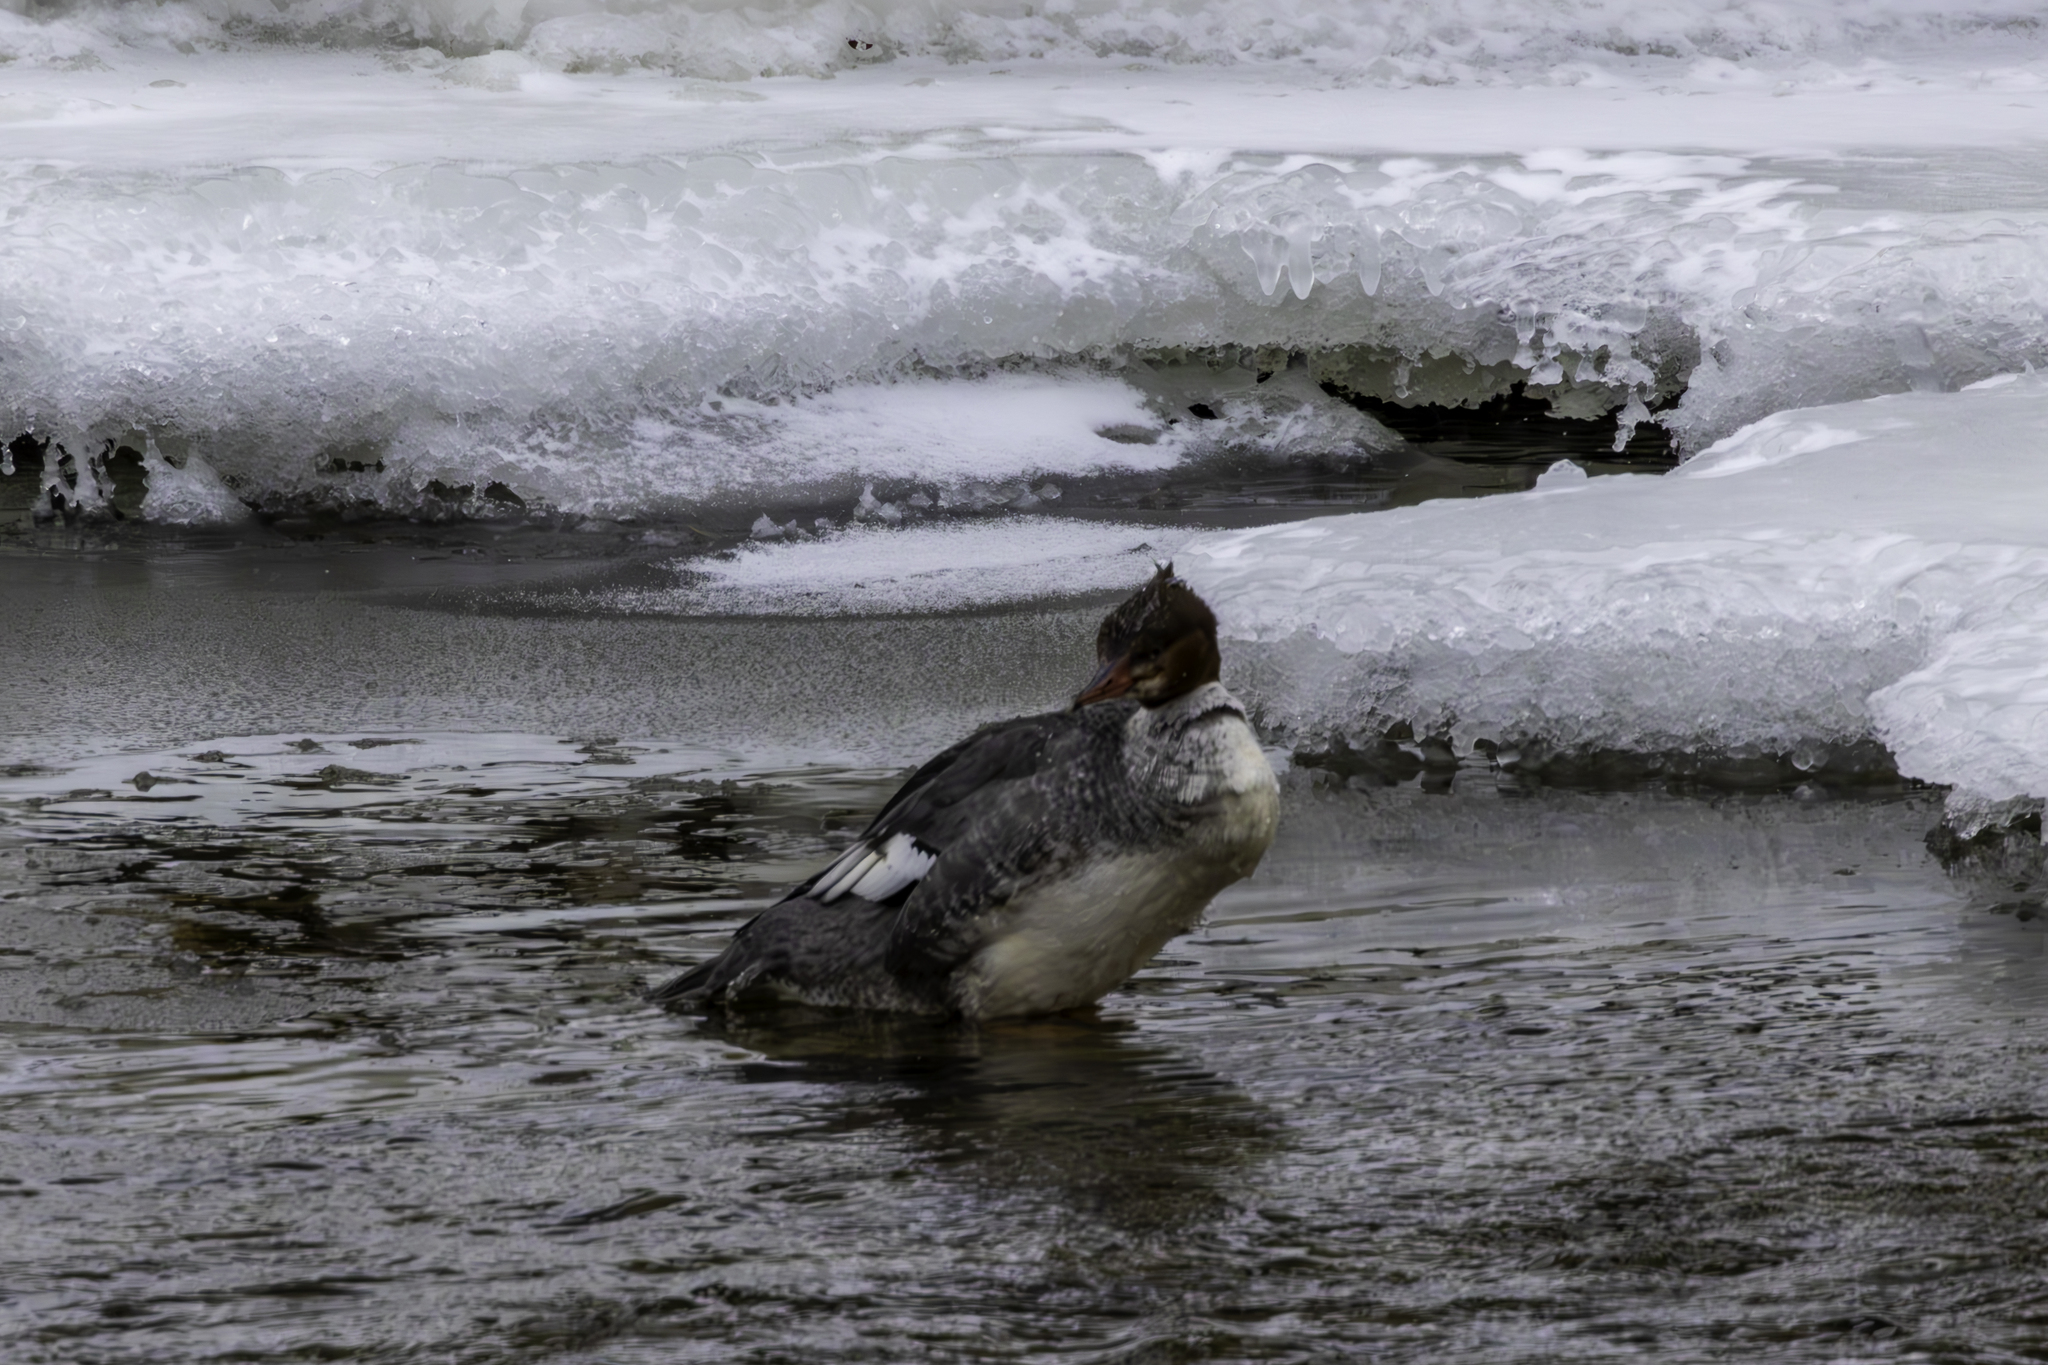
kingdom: Animalia
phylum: Chordata
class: Aves
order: Anseriformes
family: Anatidae
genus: Mergus
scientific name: Mergus merganser
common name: Common merganser
